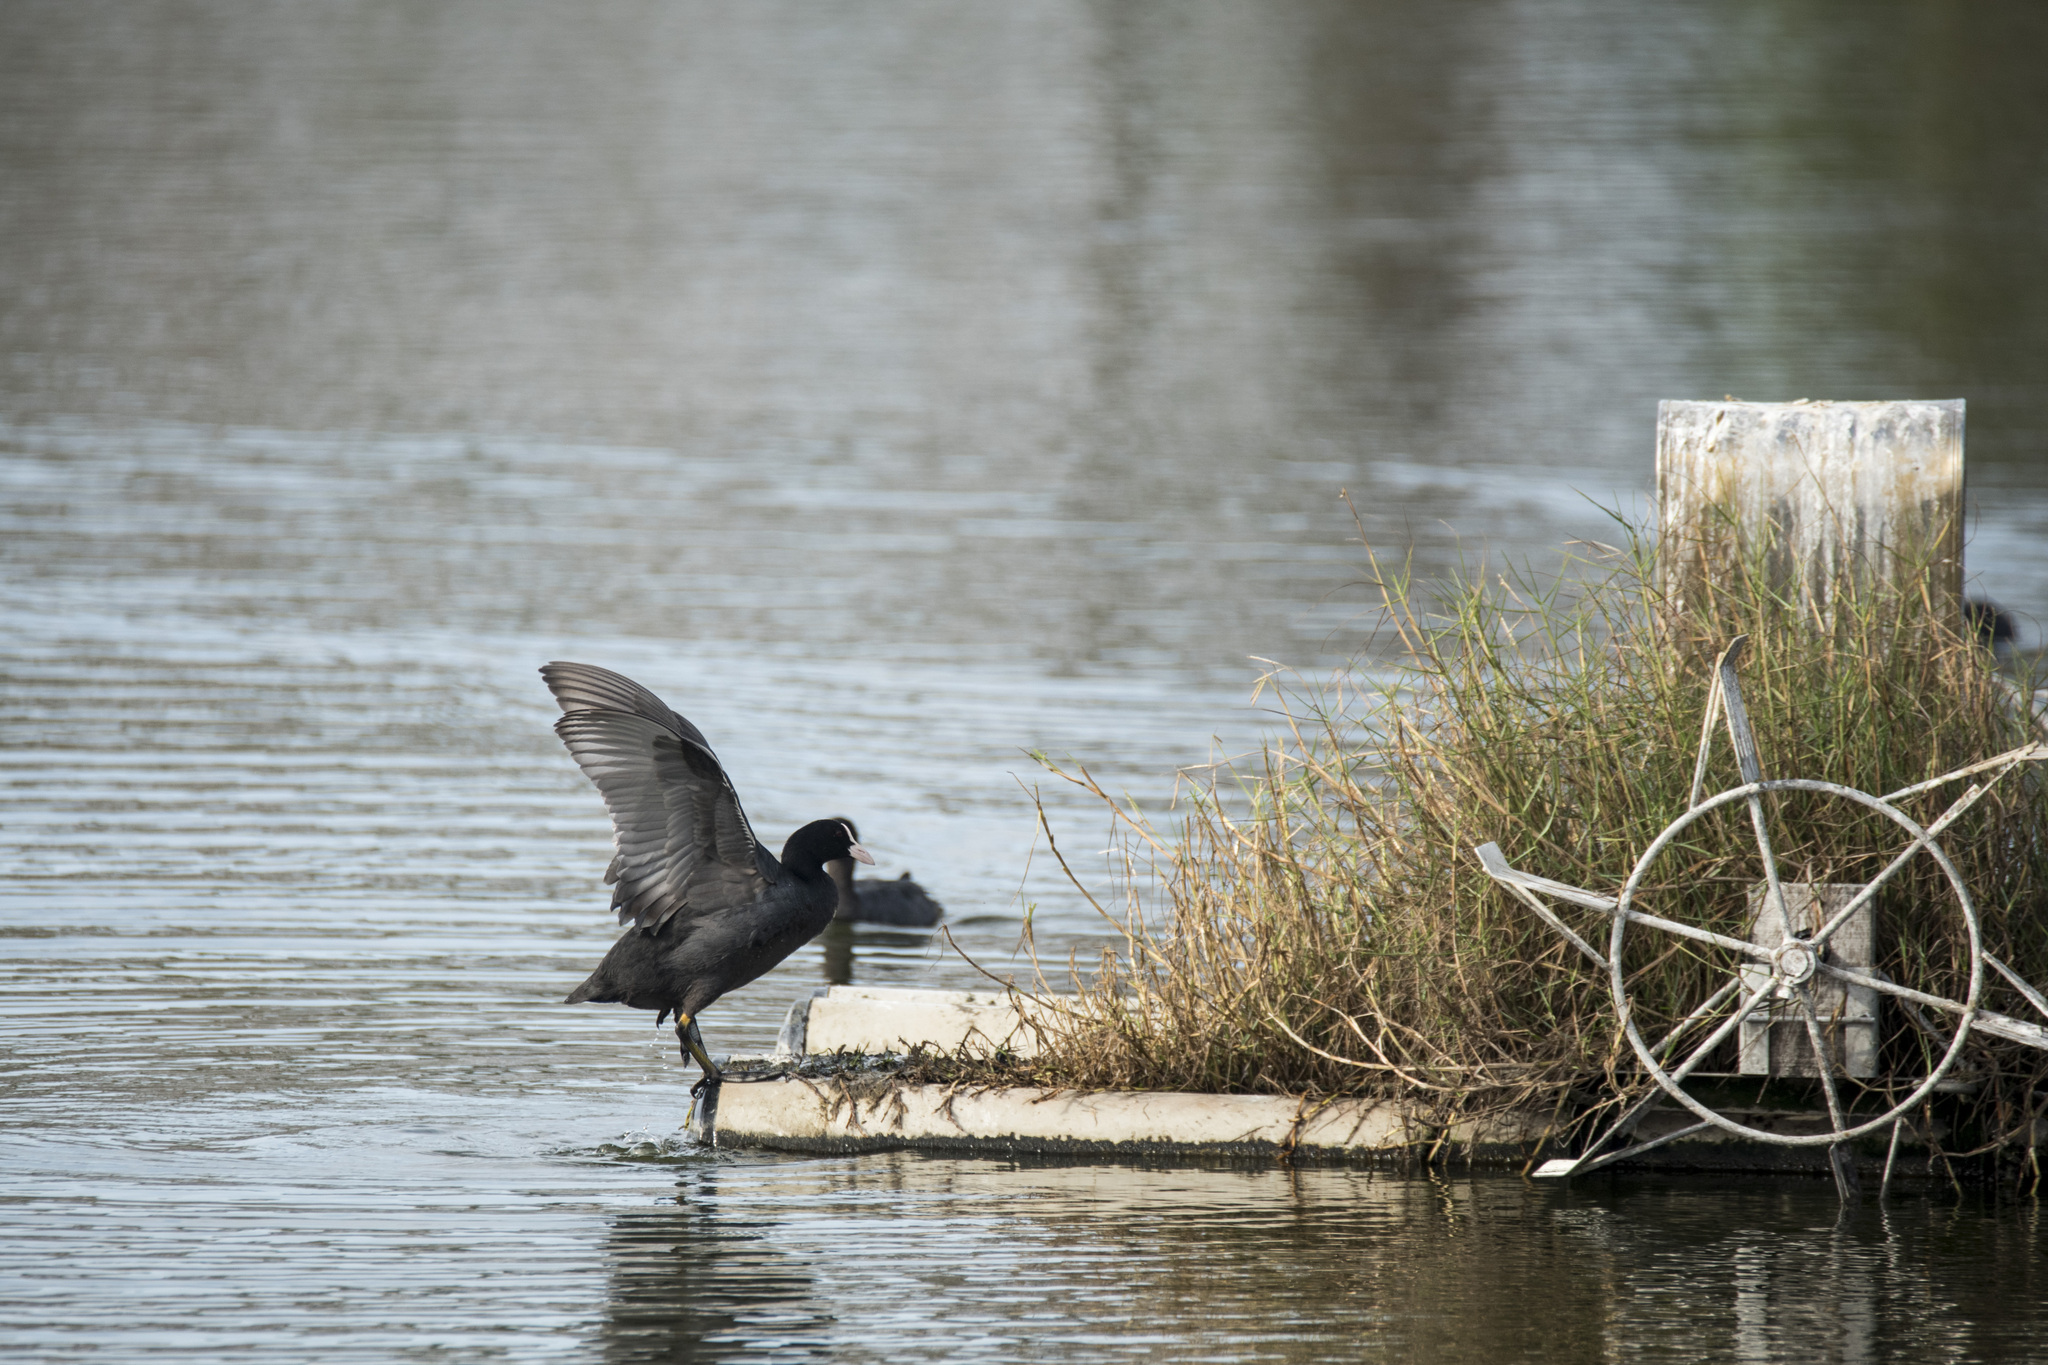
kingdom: Animalia
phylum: Chordata
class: Aves
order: Gruiformes
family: Rallidae
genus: Fulica
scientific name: Fulica atra
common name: Eurasian coot
